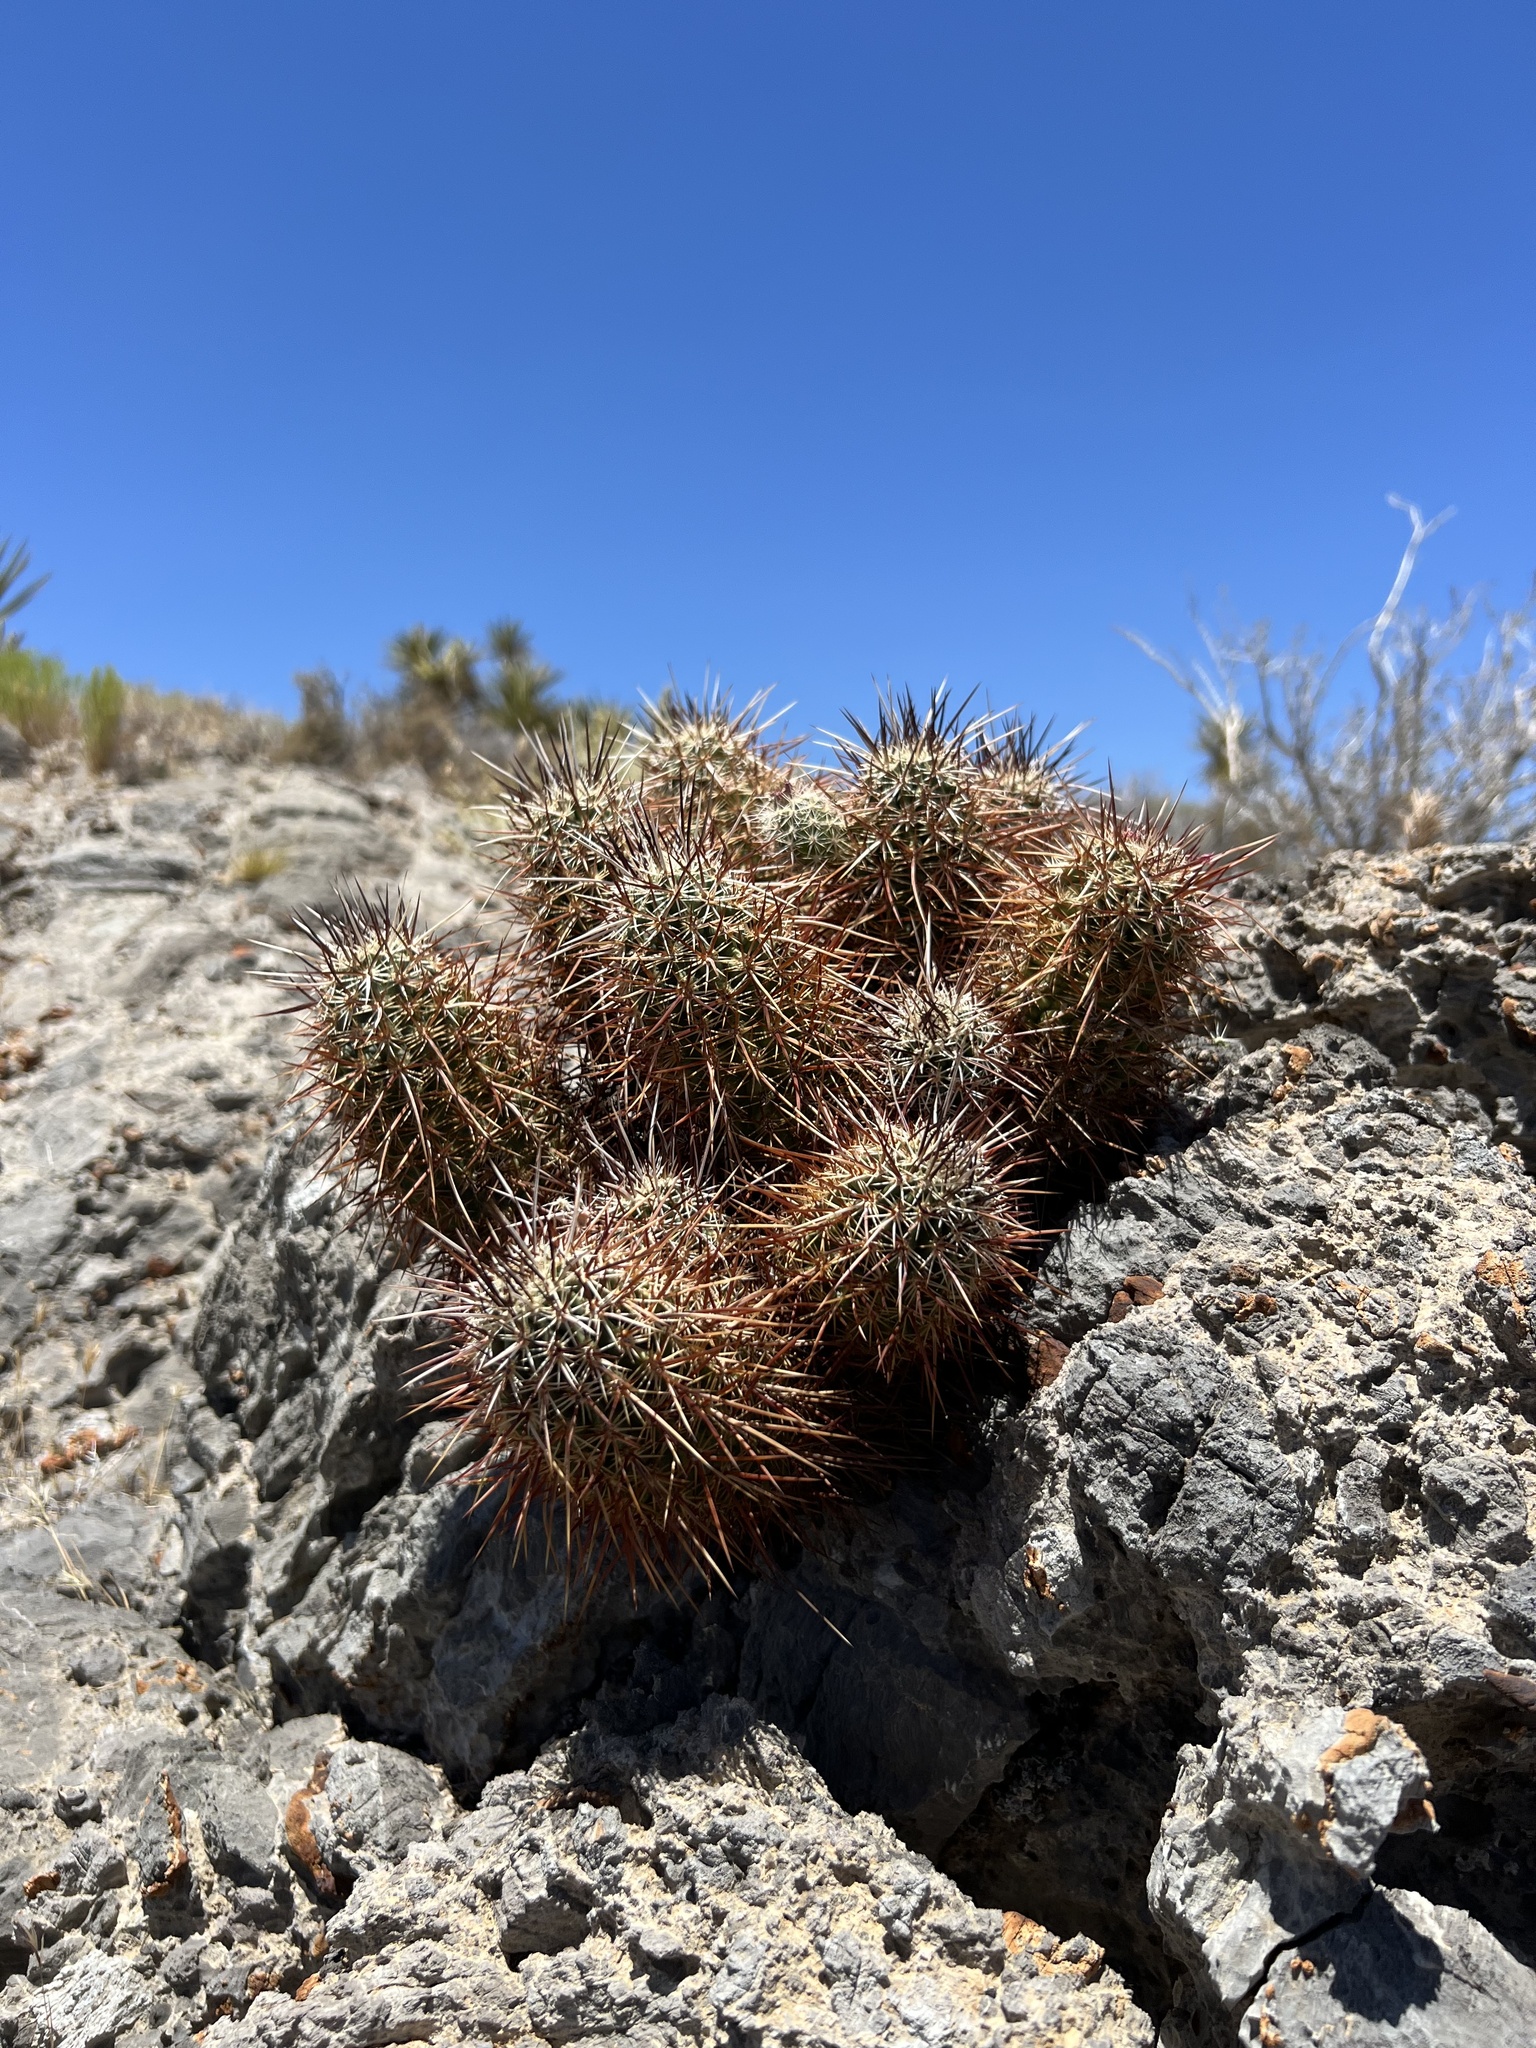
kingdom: Plantae
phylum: Tracheophyta
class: Magnoliopsida
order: Caryophyllales
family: Cactaceae
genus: Echinocereus
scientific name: Echinocereus engelmannii
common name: Engelmann's hedgehog cactus
